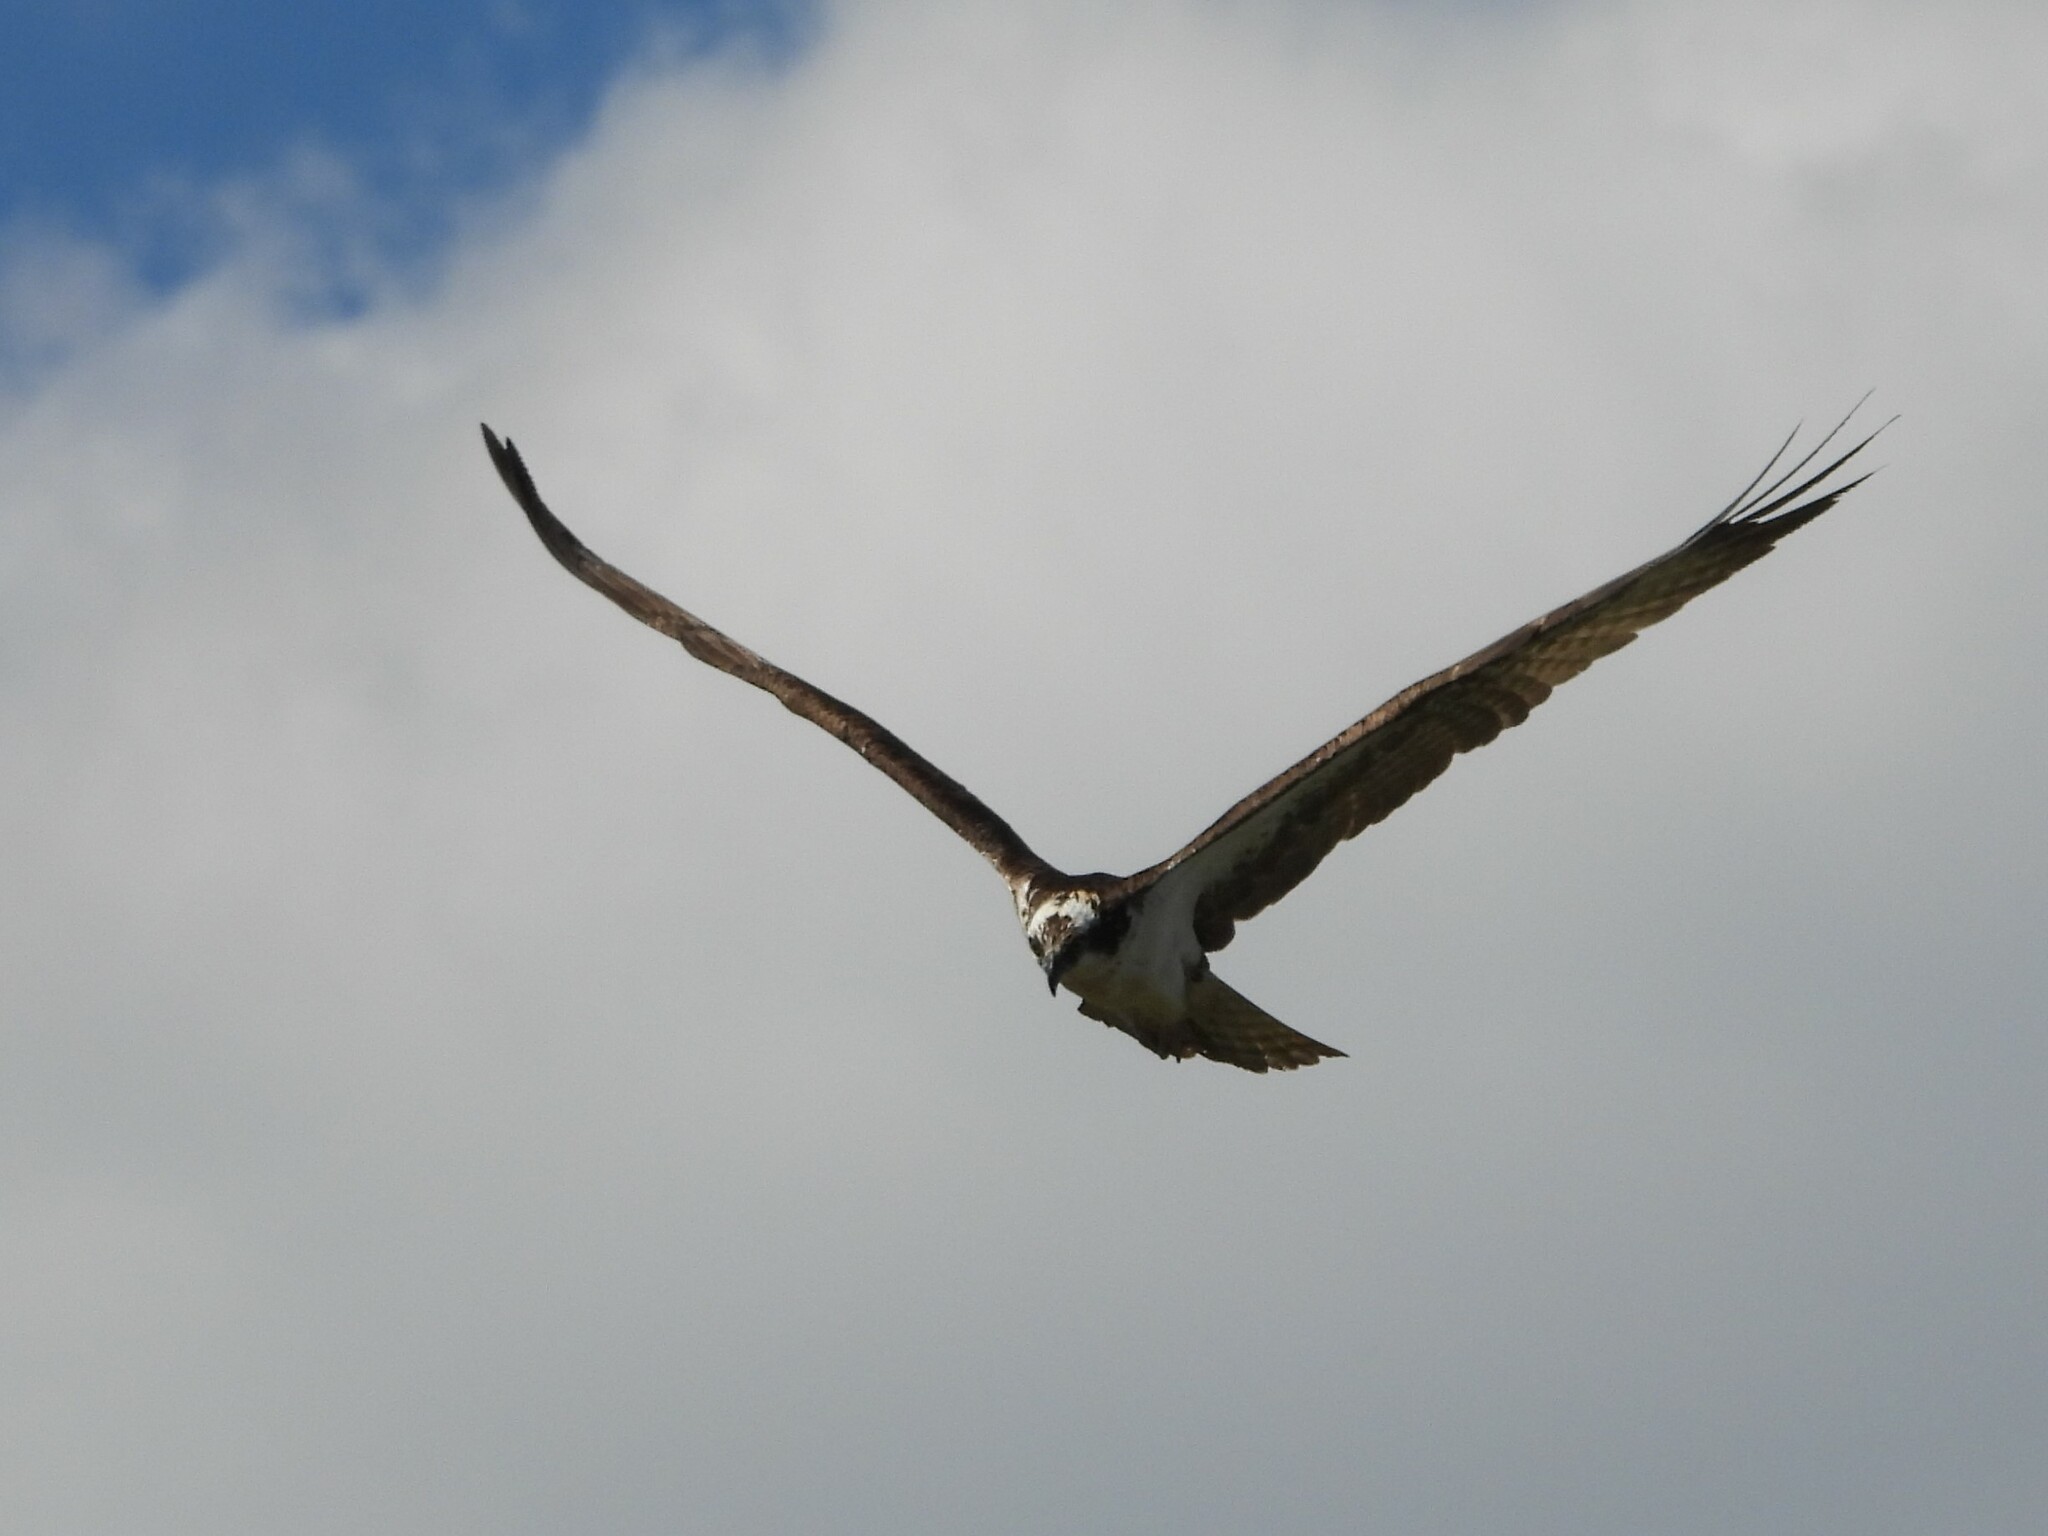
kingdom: Animalia
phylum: Chordata
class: Aves
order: Accipitriformes
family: Pandionidae
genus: Pandion
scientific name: Pandion haliaetus
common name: Osprey
